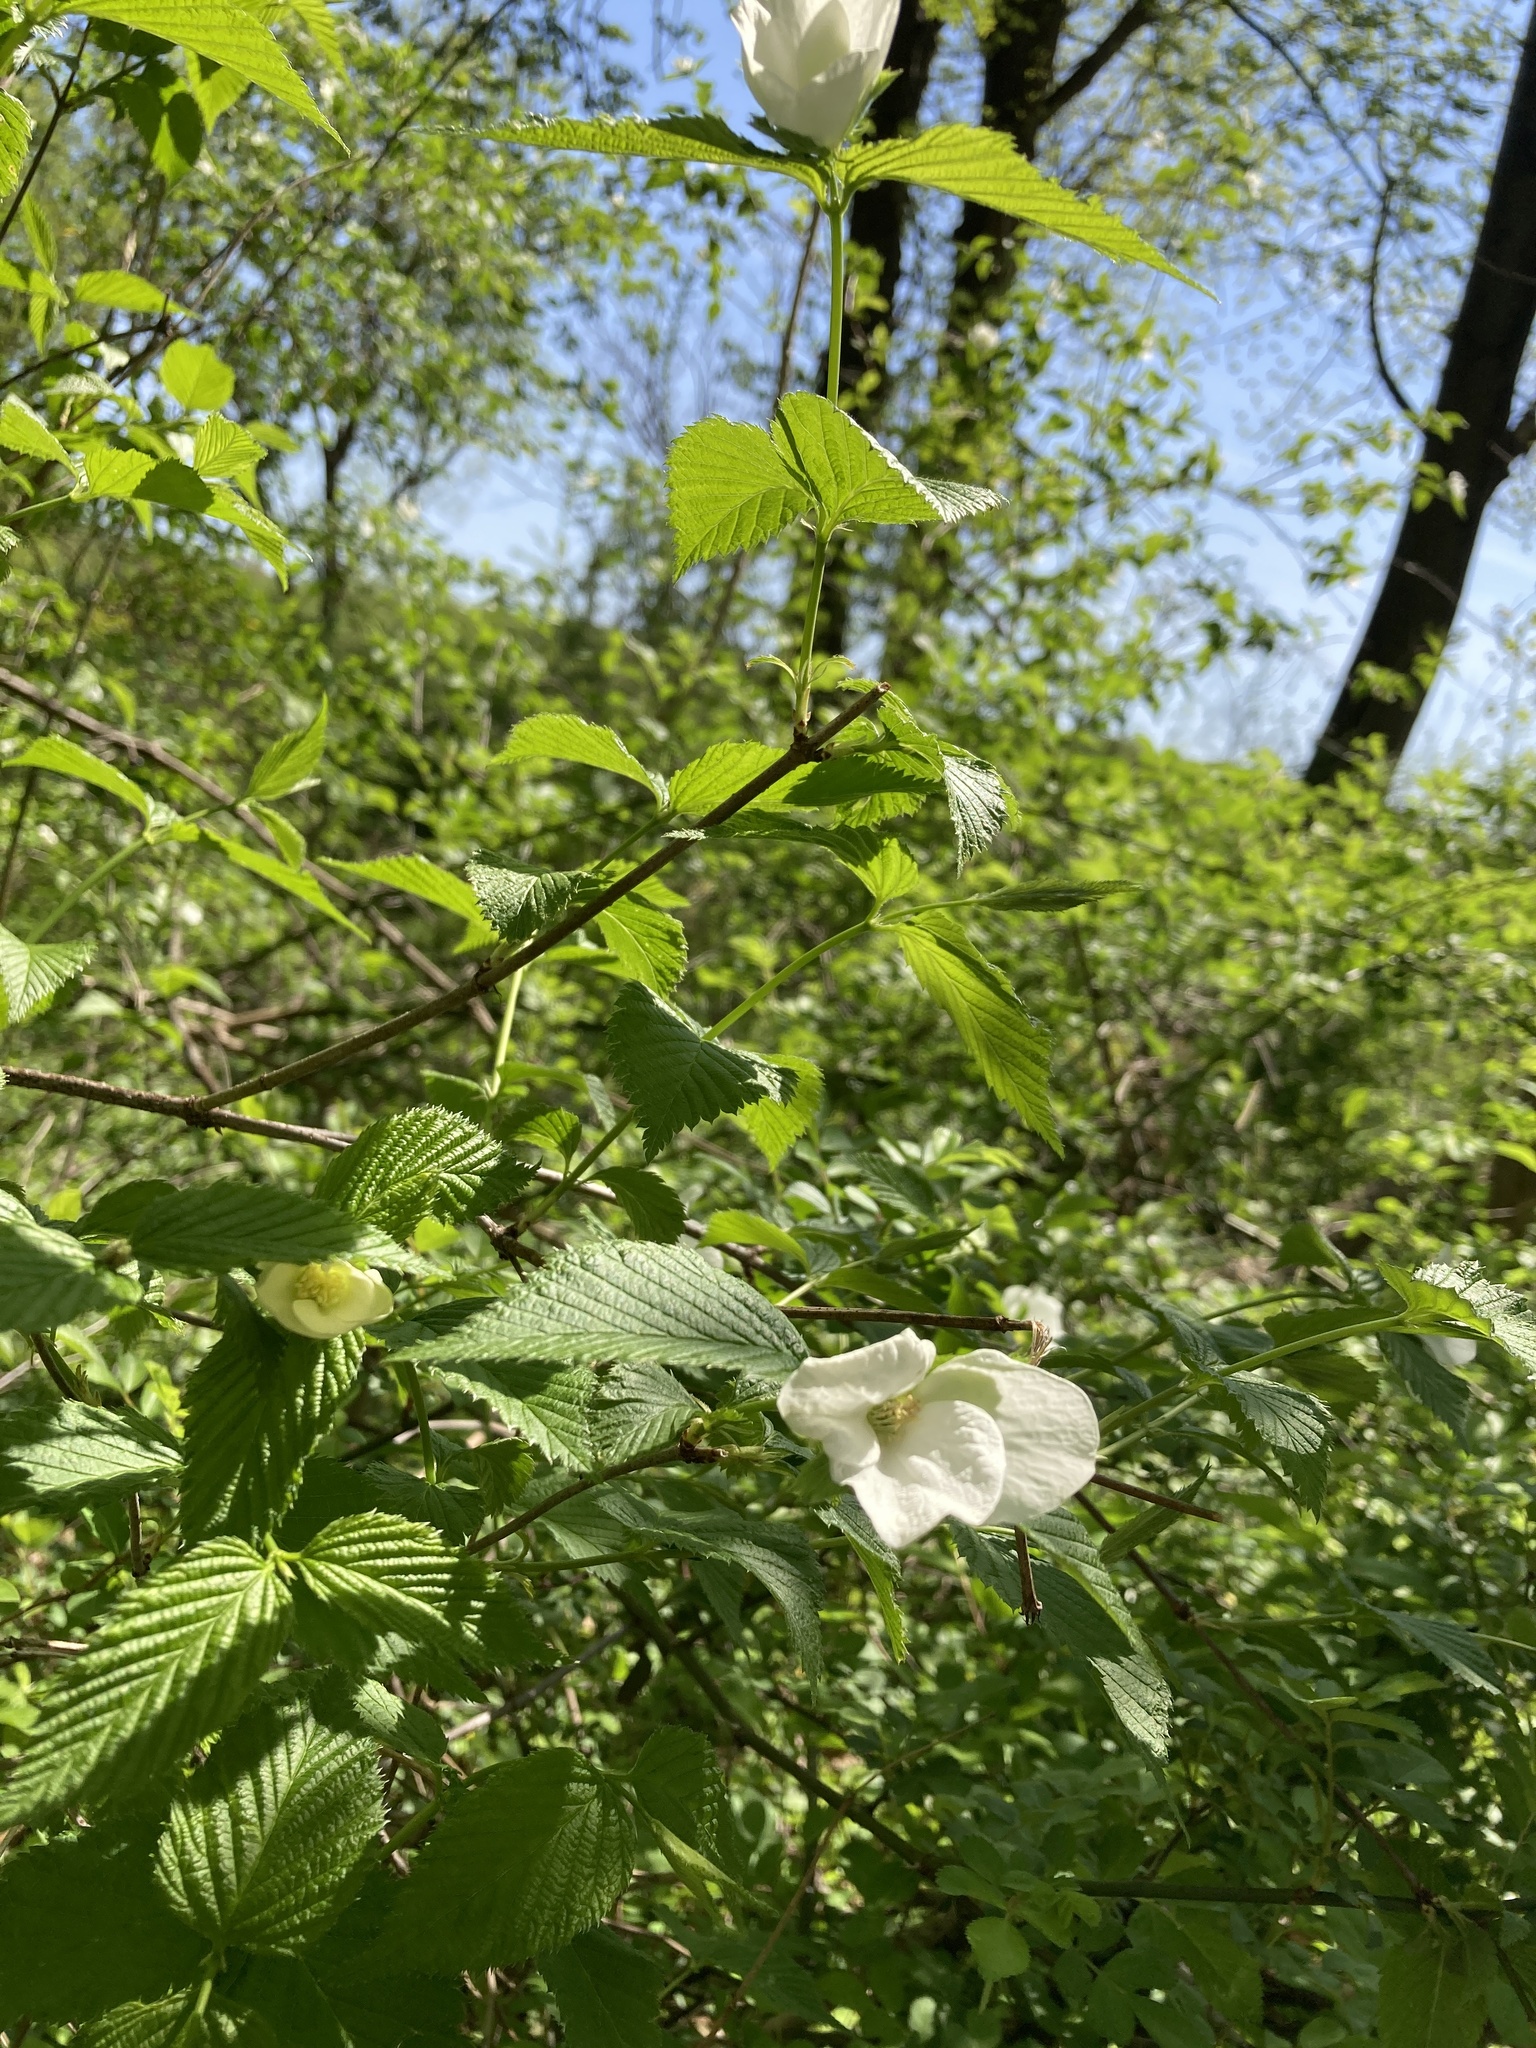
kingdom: Plantae
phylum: Tracheophyta
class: Magnoliopsida
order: Rosales
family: Rosaceae
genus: Rhodotypos
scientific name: Rhodotypos scandens
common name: Jetbead
